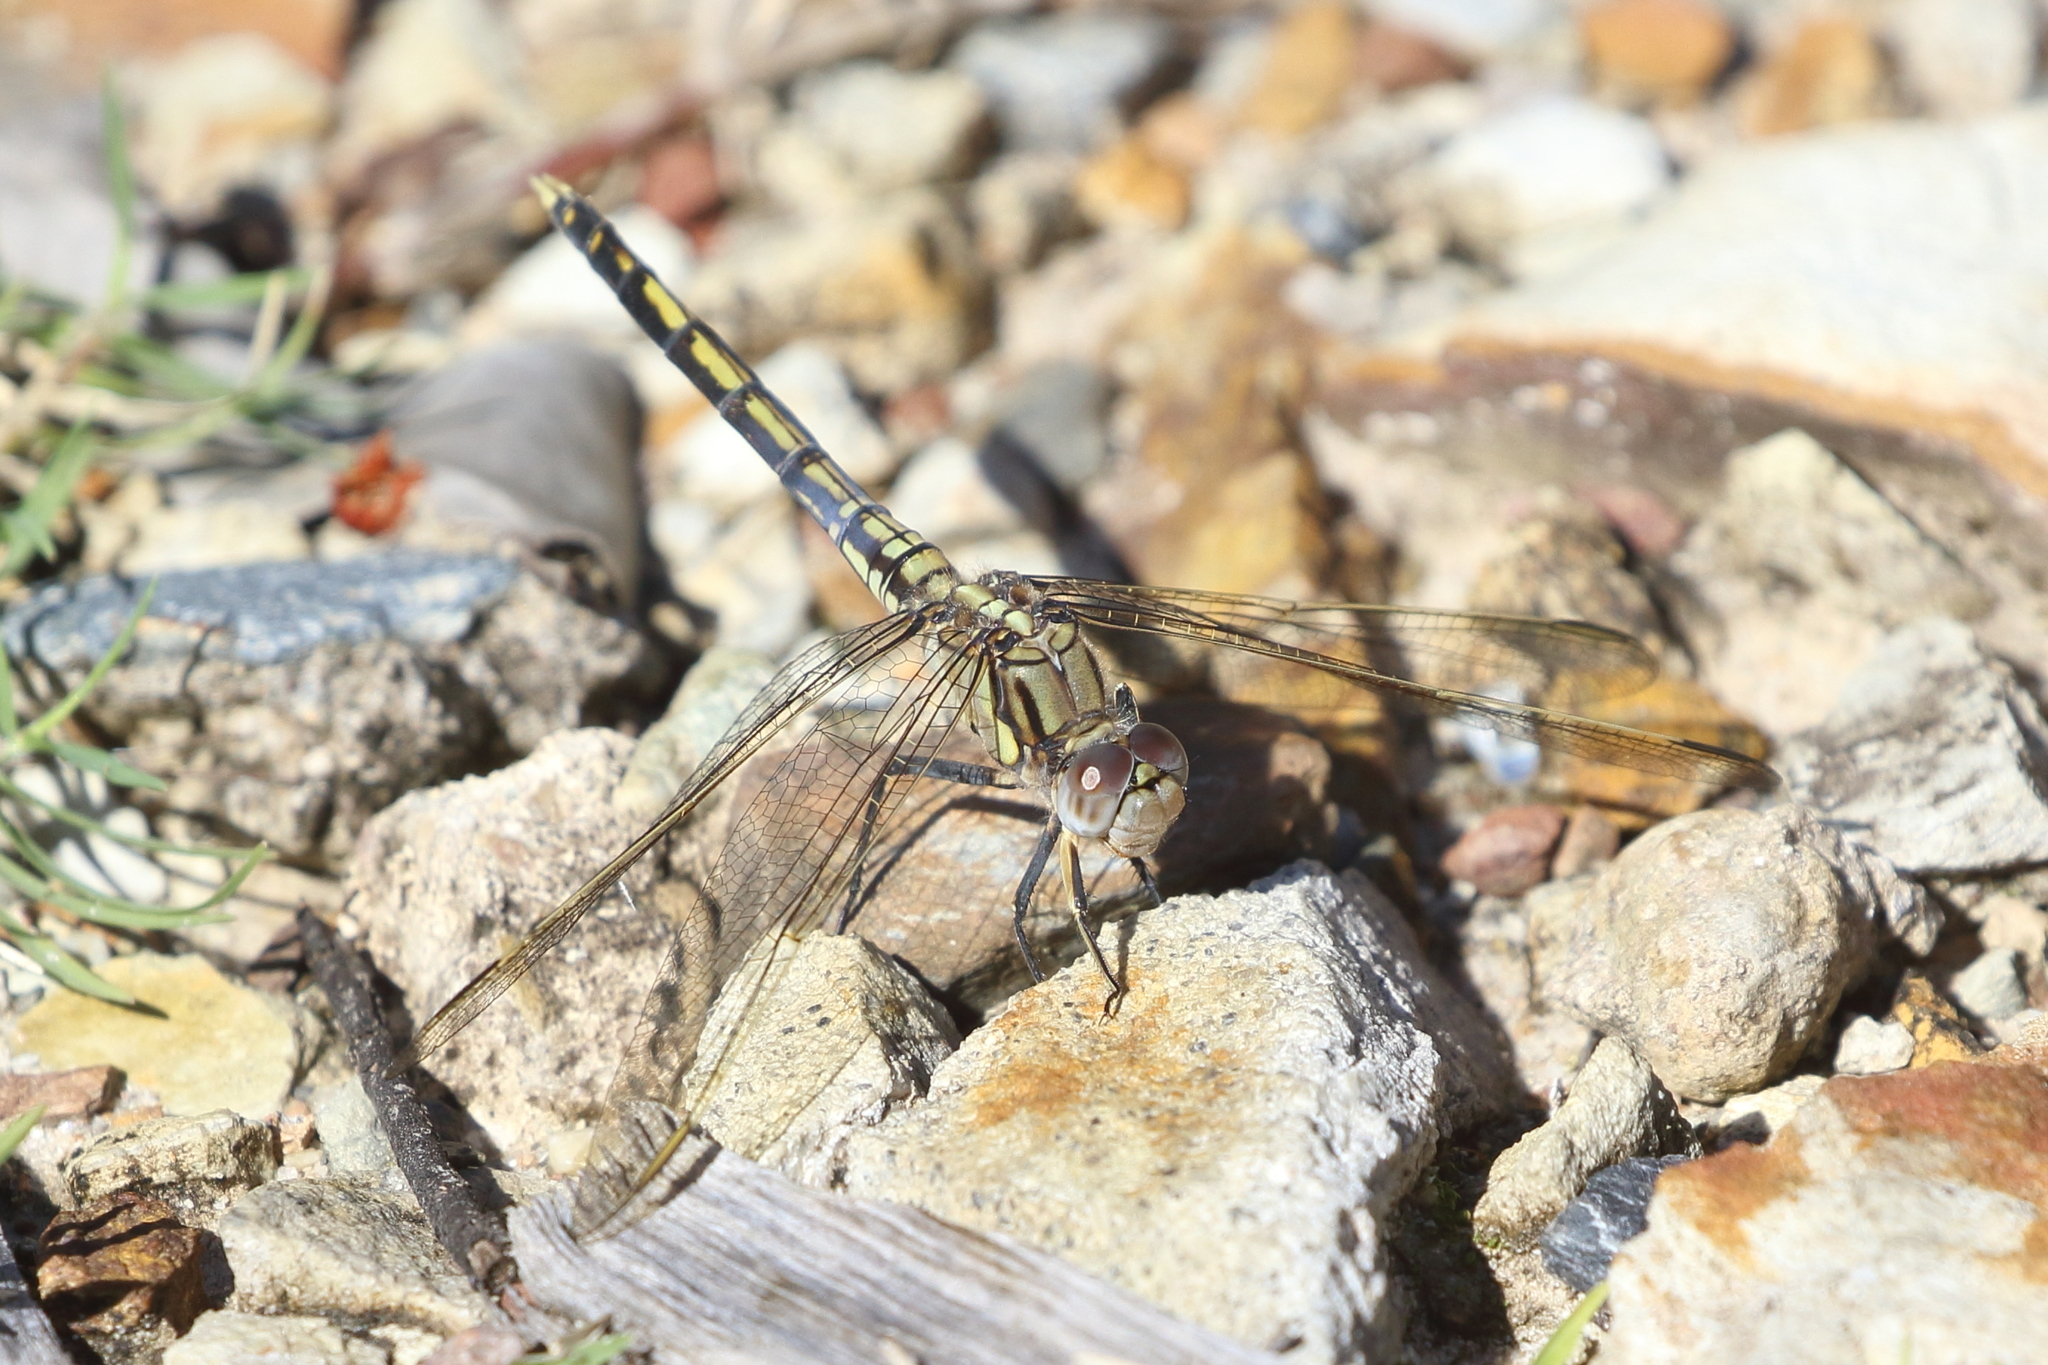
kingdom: Animalia
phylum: Arthropoda
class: Insecta
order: Odonata
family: Libellulidae
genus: Orthetrum
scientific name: Orthetrum caledonicum
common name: Blue skimmer
